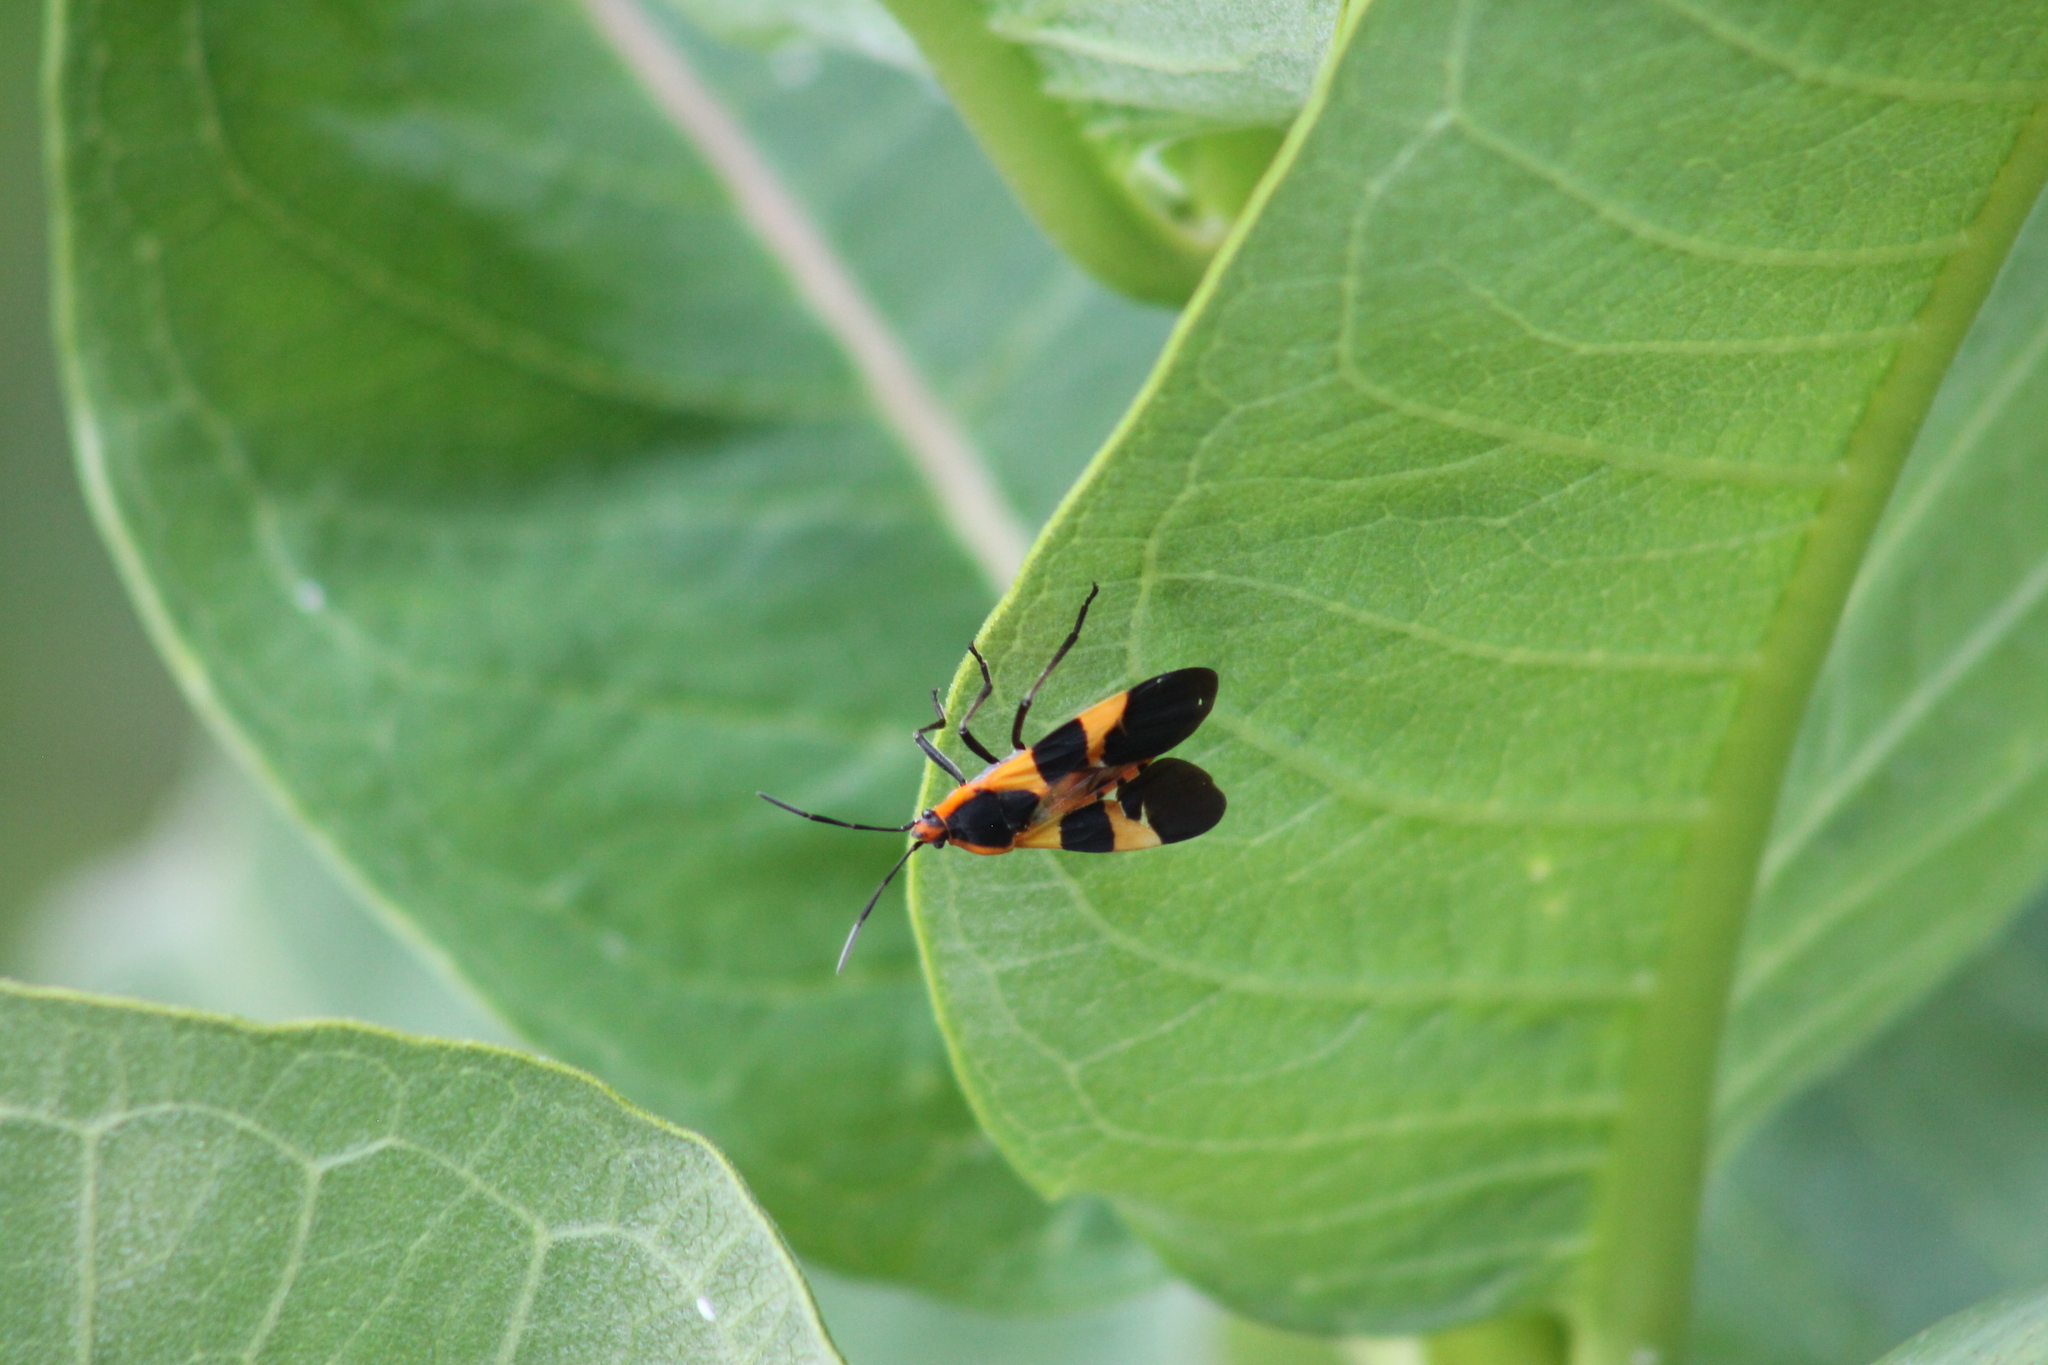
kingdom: Animalia
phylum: Arthropoda
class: Insecta
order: Hemiptera
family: Lygaeidae
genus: Oncopeltus
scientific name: Oncopeltus fasciatus
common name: Large milkweed bug
